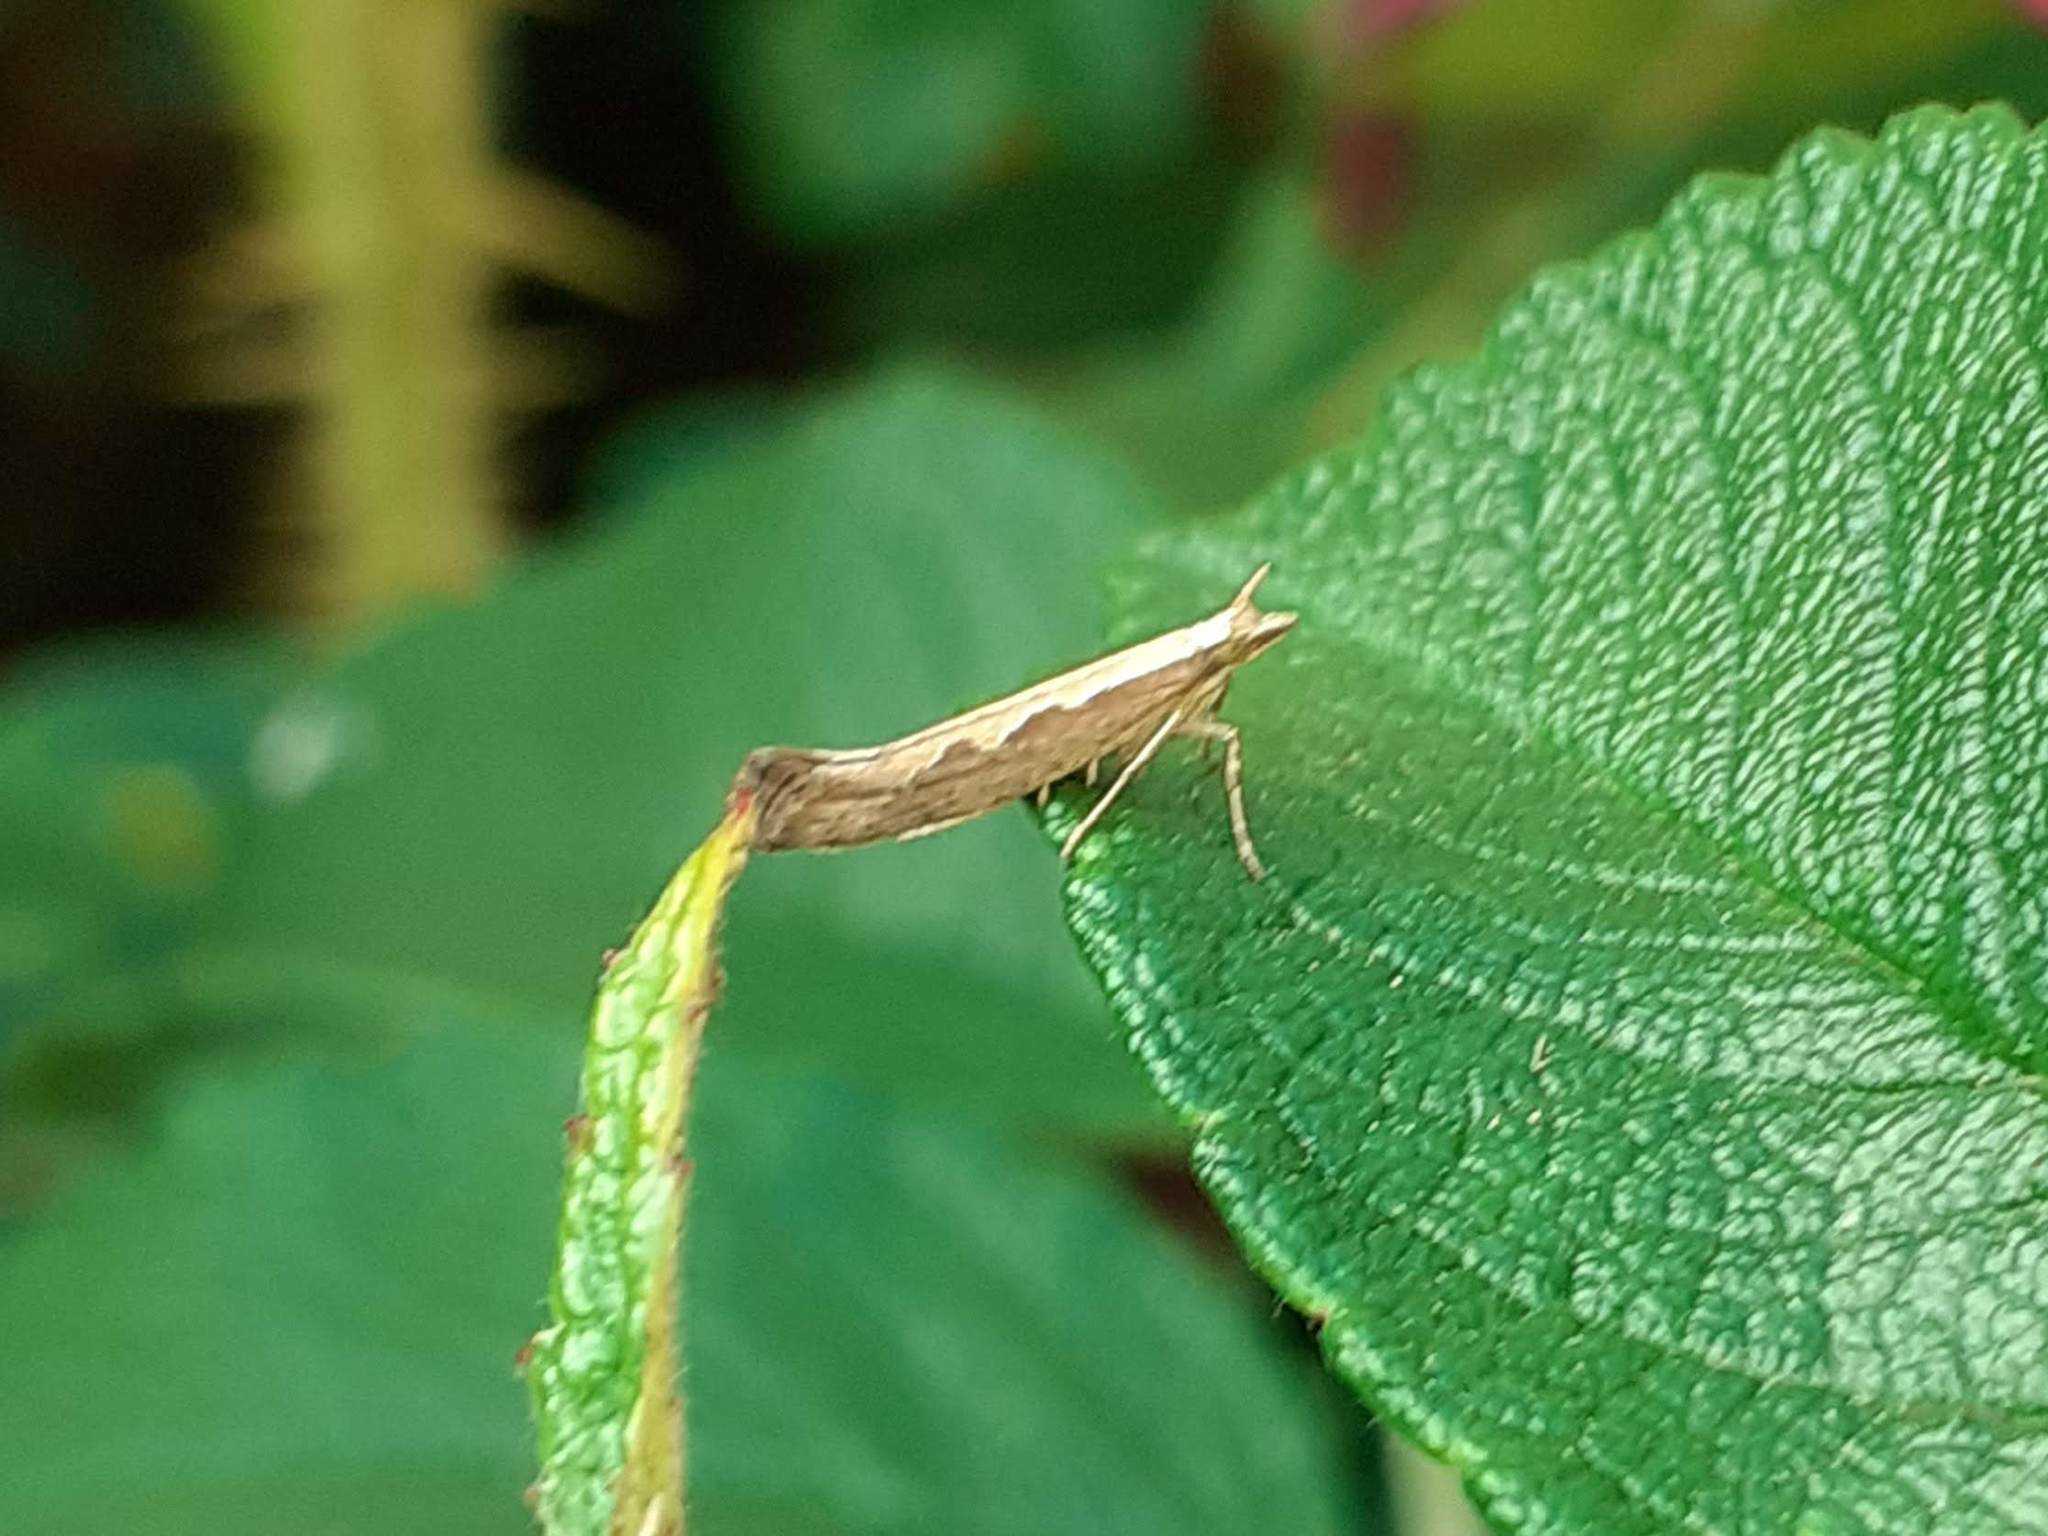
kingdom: Animalia
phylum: Arthropoda
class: Insecta
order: Lepidoptera
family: Plutellidae
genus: Plutella
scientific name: Plutella xylostella
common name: Diamond-back moth
